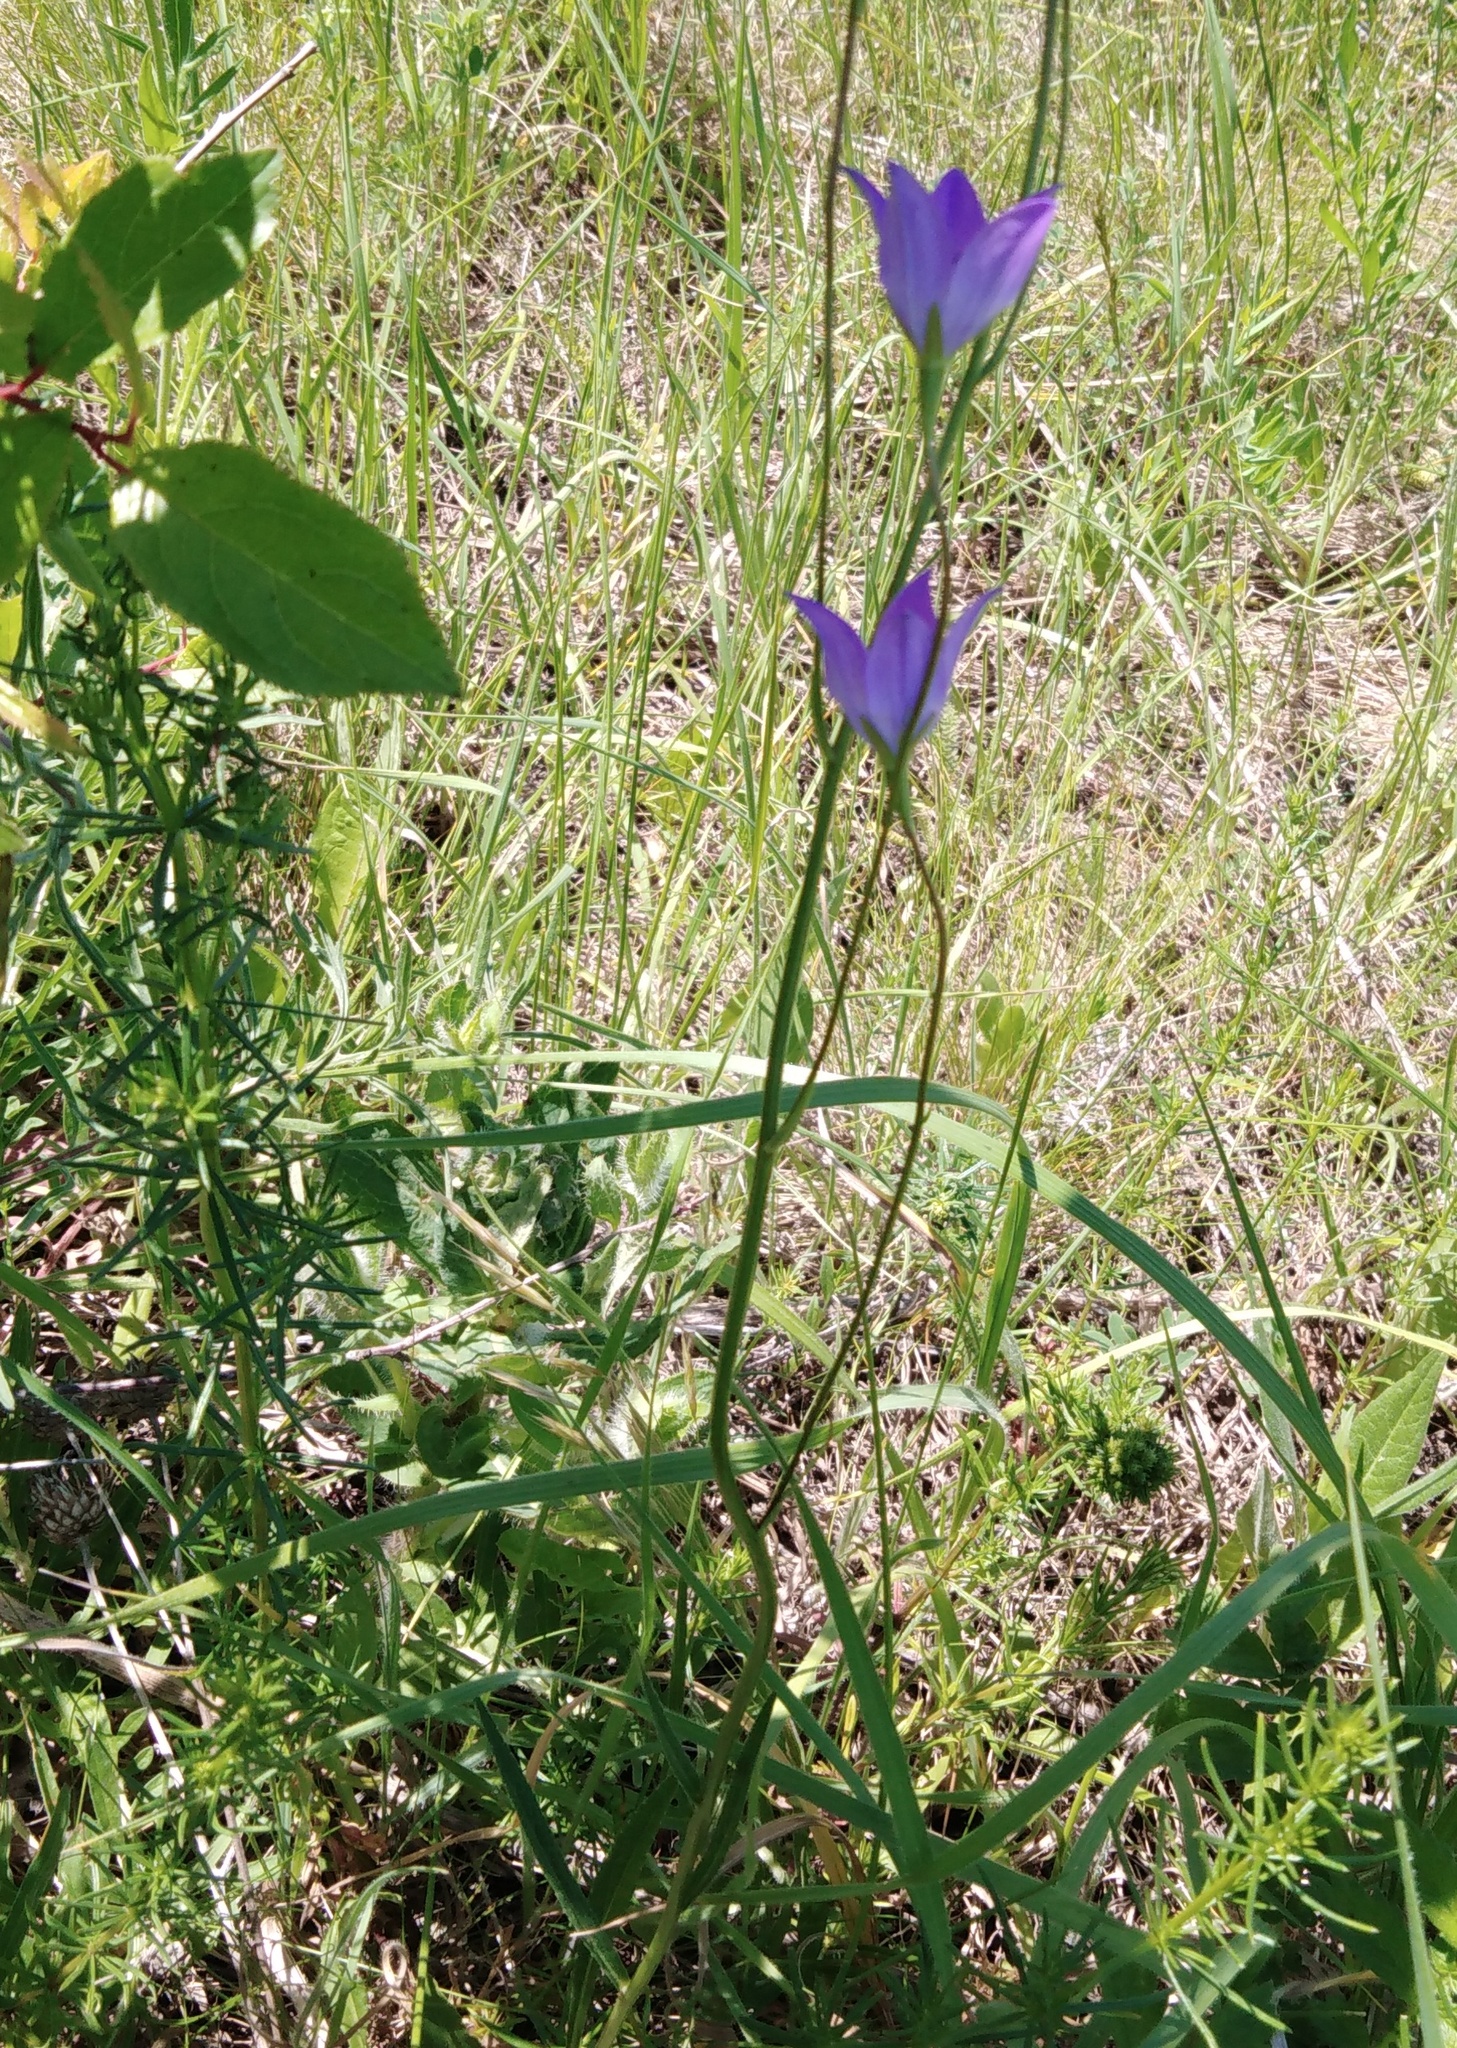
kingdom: Plantae
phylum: Tracheophyta
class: Magnoliopsida
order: Asterales
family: Campanulaceae
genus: Campanula
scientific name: Campanula stevenii
